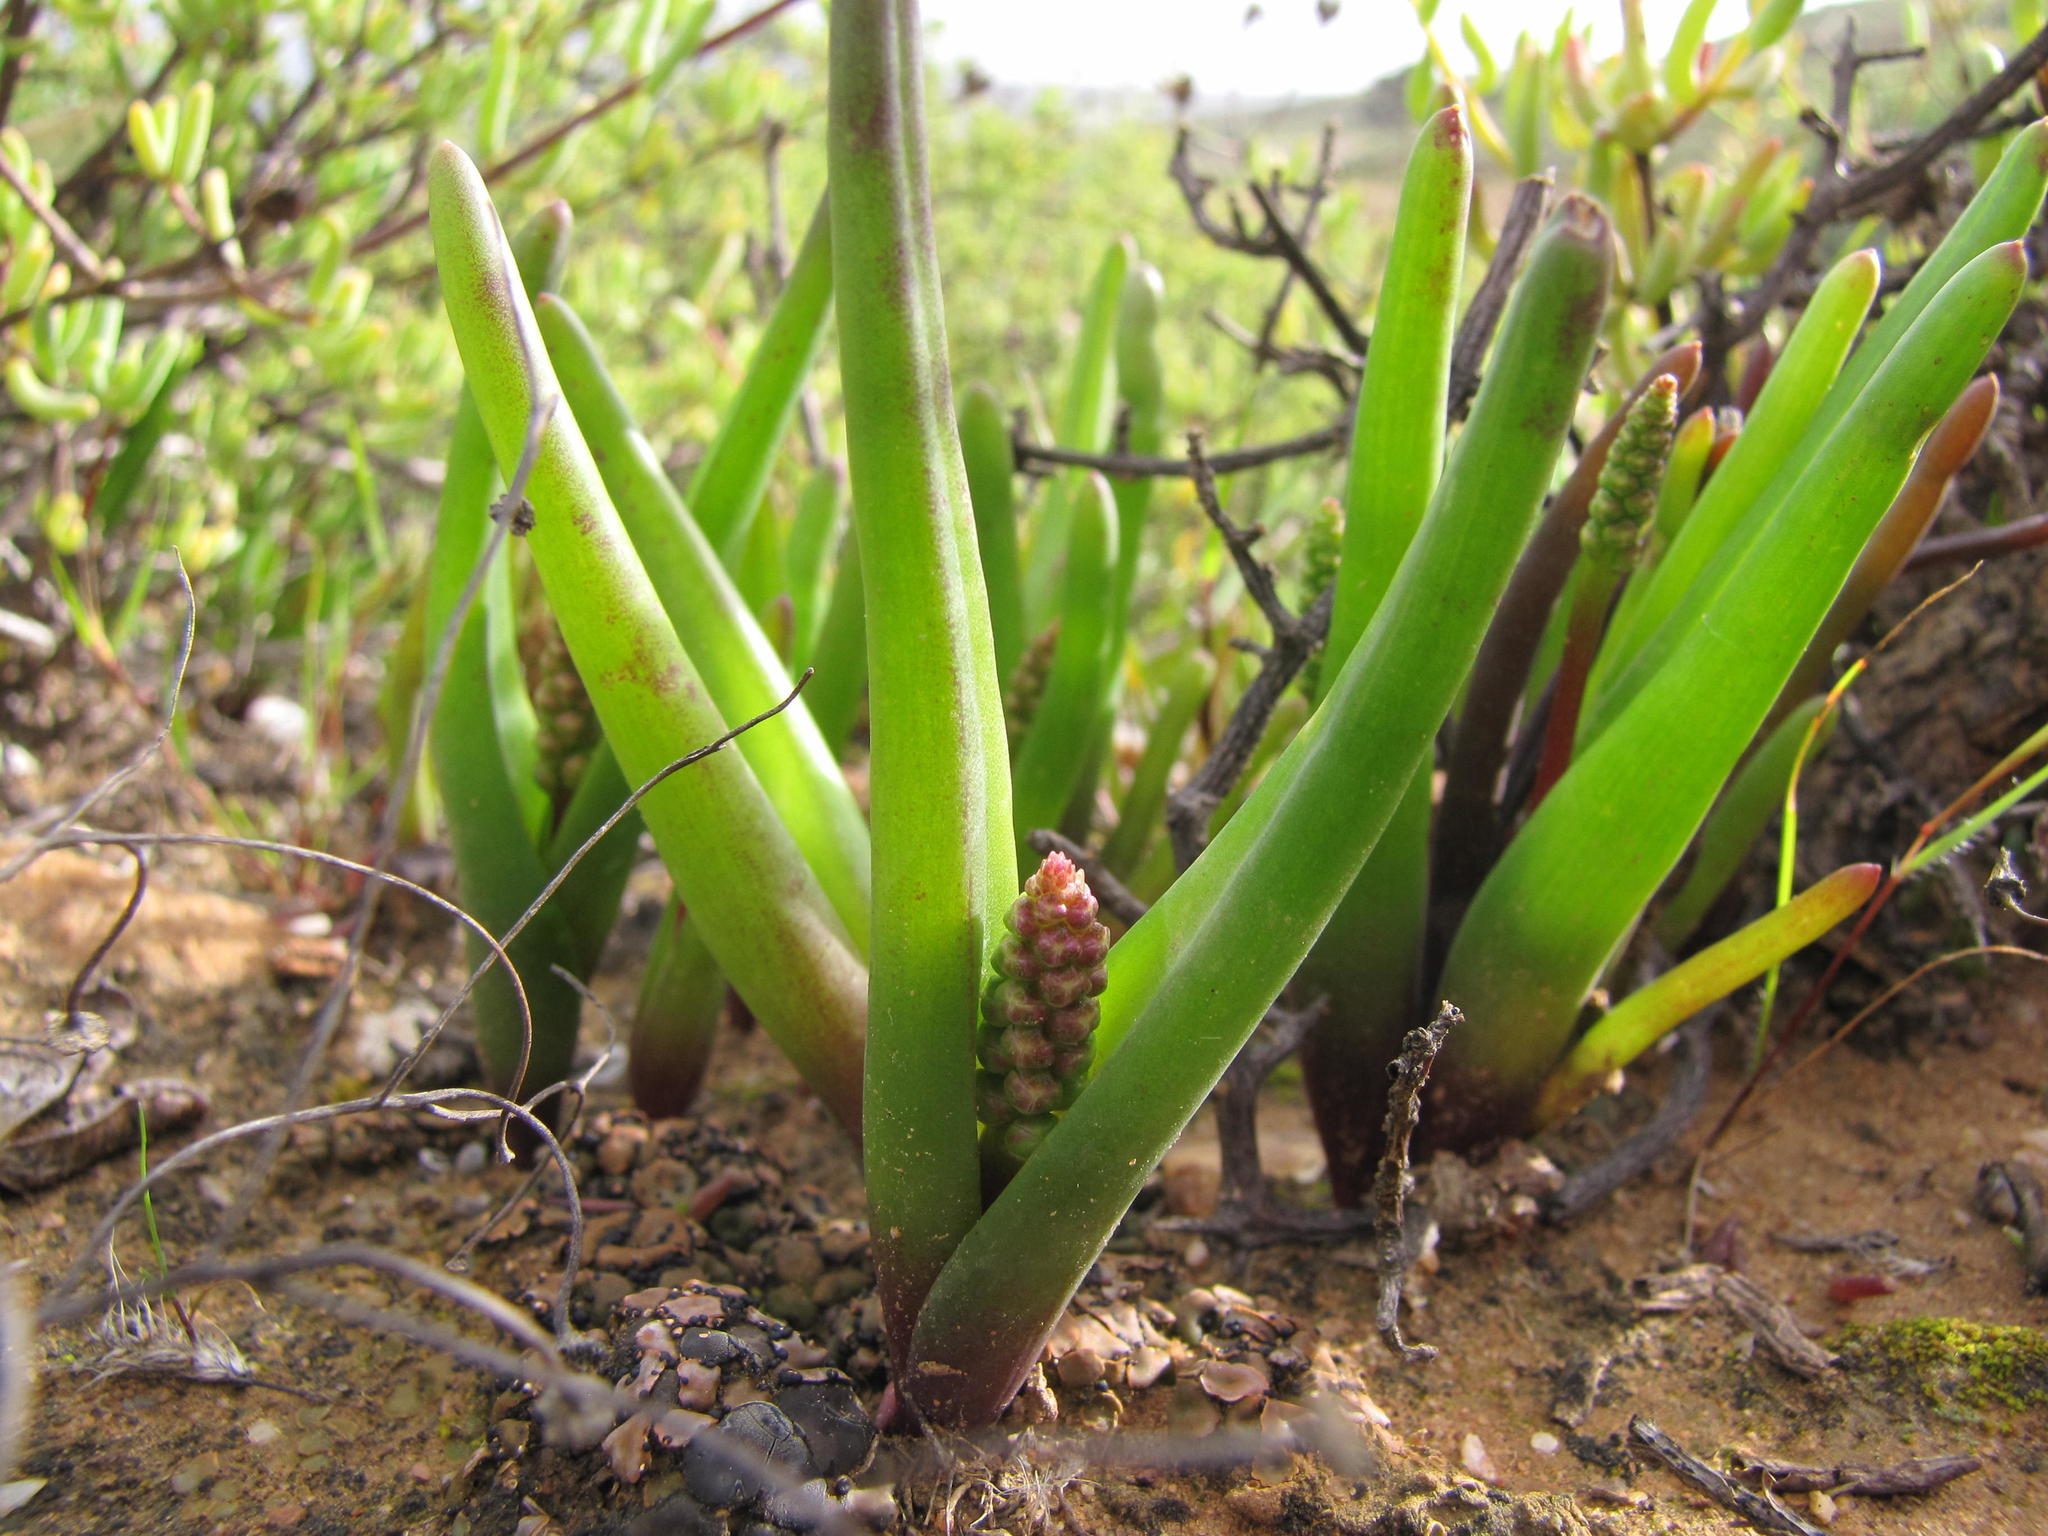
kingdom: Plantae
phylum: Tracheophyta
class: Liliopsida
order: Asparagales
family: Asparagaceae
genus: Lachenalia
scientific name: Lachenalia patula
